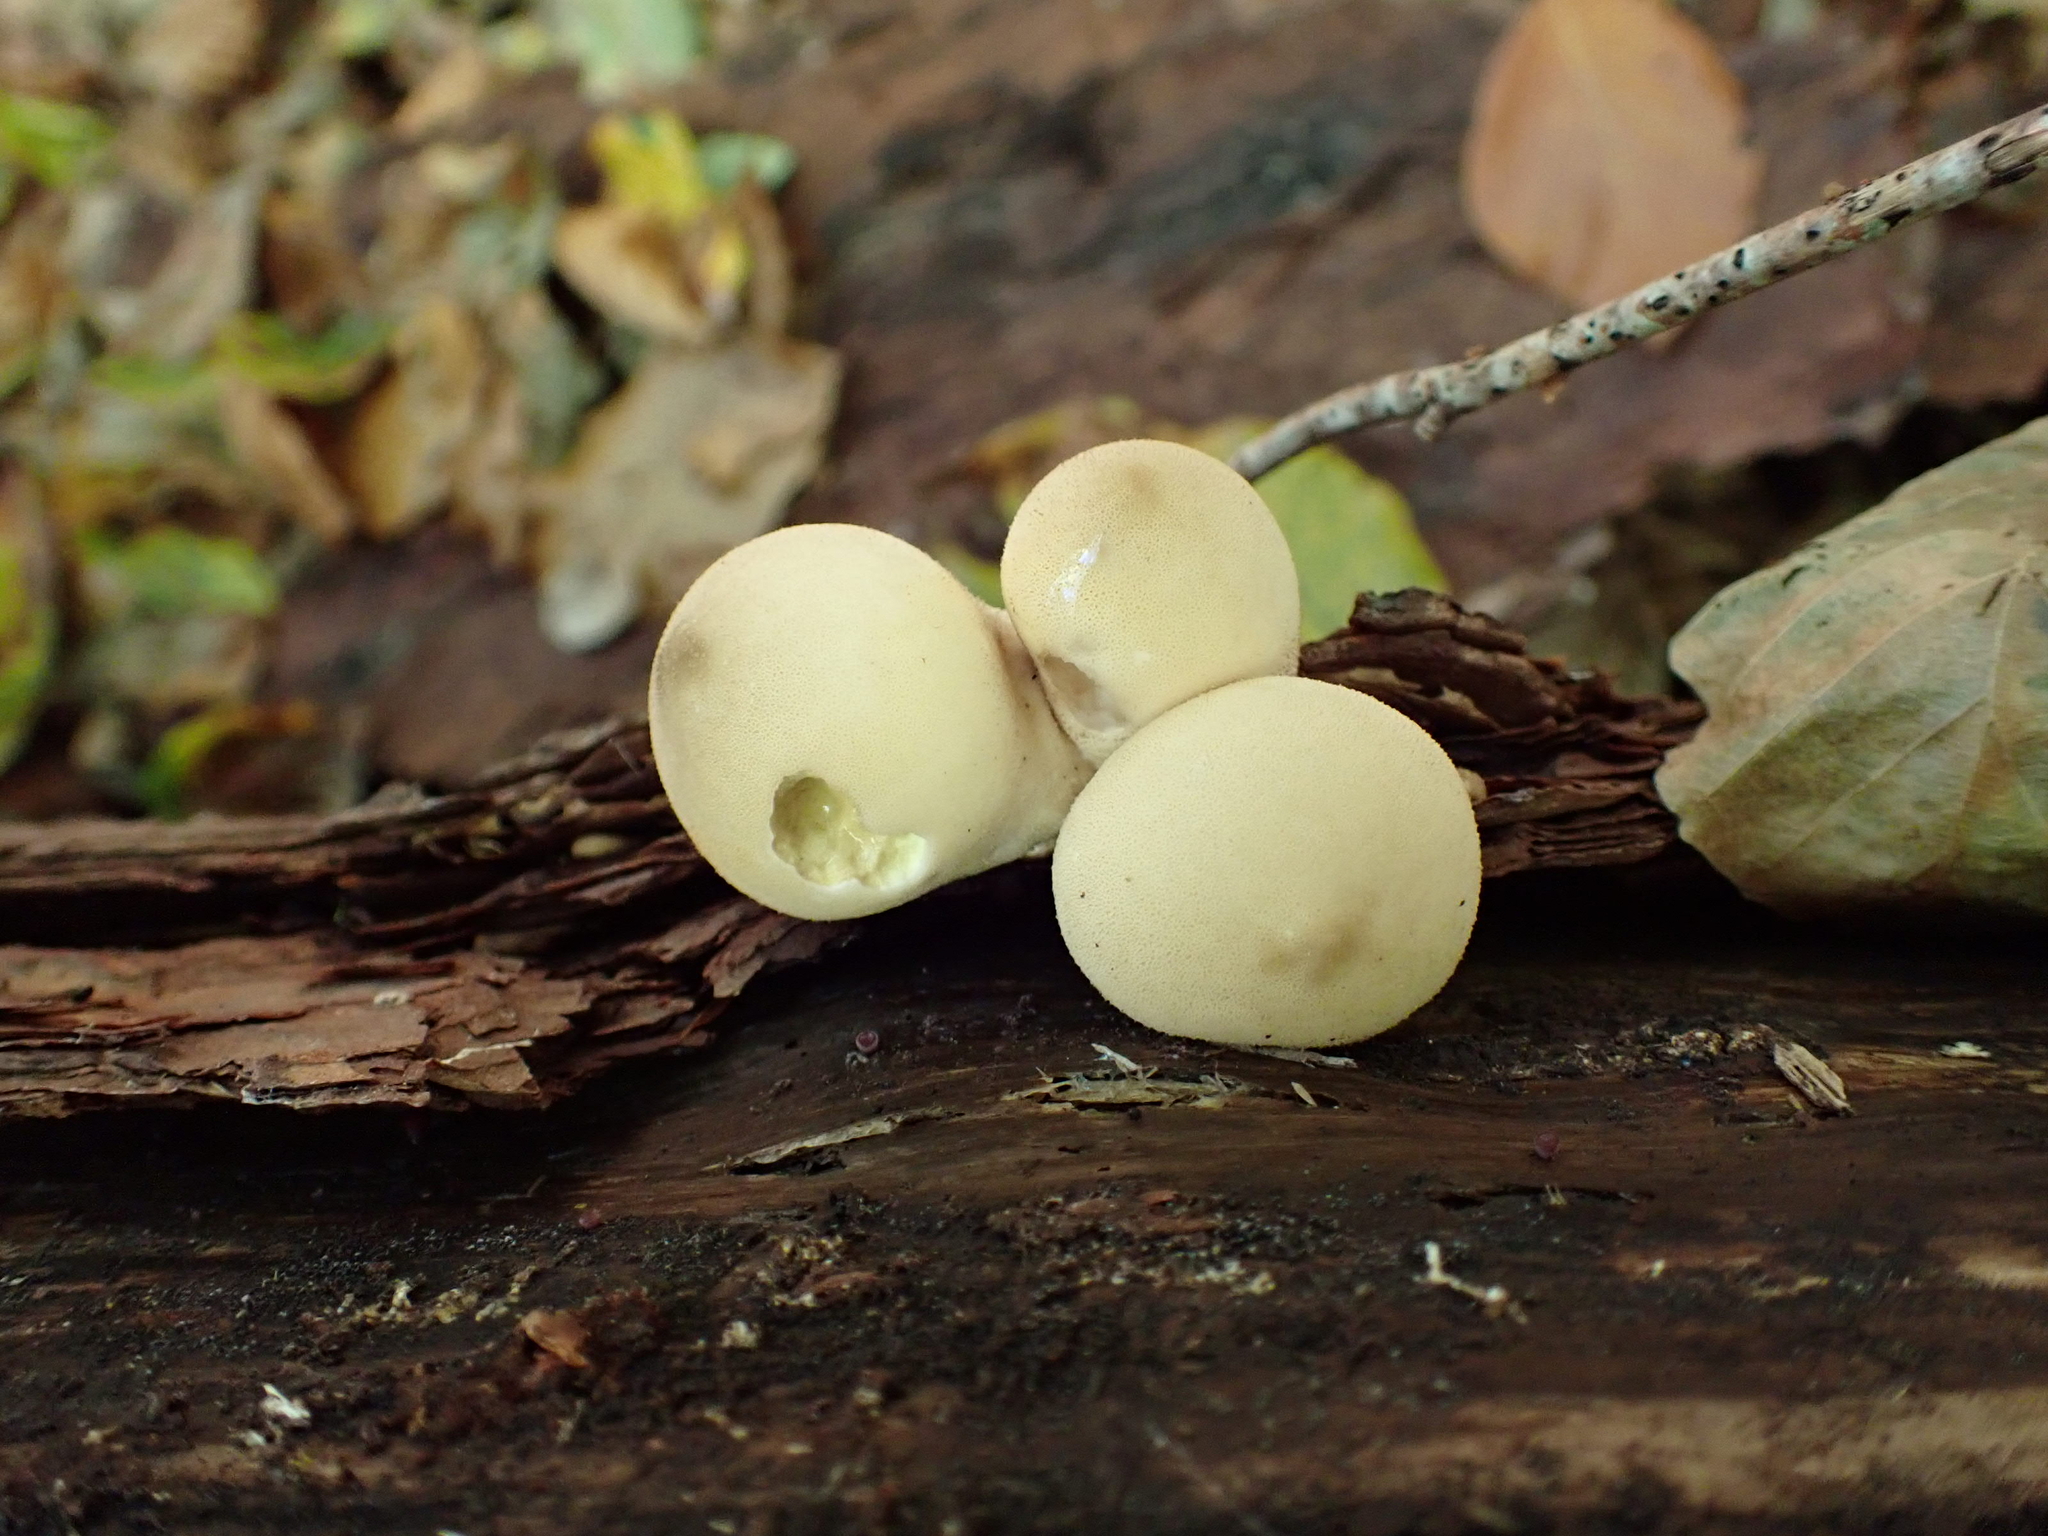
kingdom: Fungi
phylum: Basidiomycota
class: Agaricomycetes
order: Agaricales
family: Lycoperdaceae
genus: Apioperdon
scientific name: Apioperdon pyriforme
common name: Pear-shaped puffball
